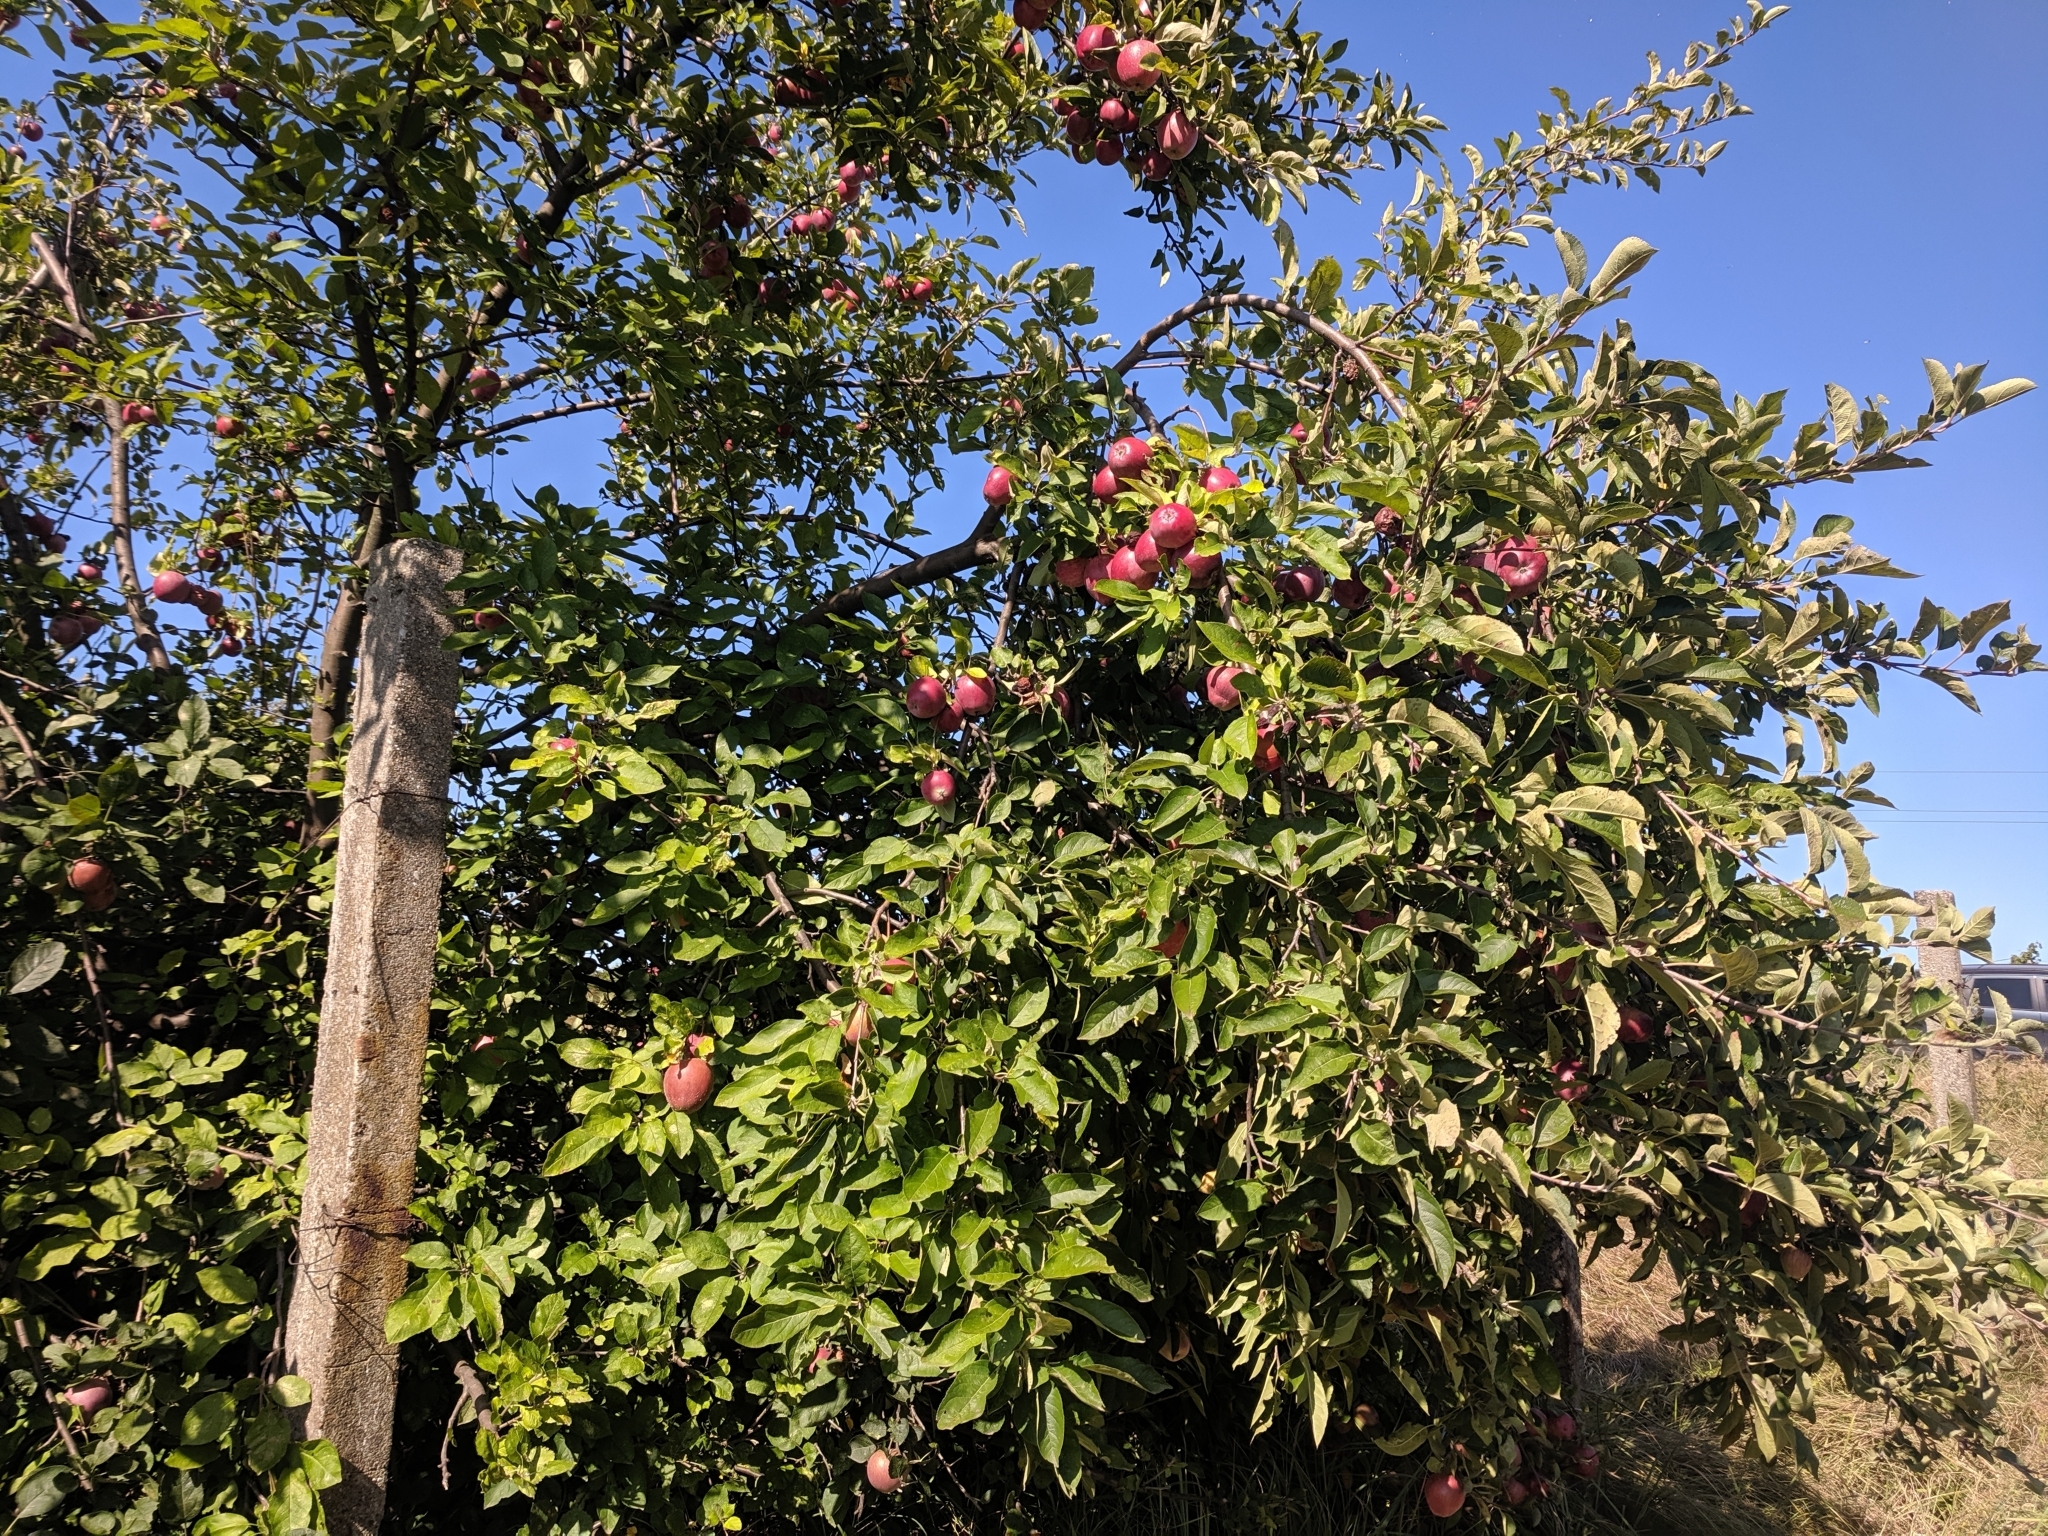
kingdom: Plantae
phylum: Tracheophyta
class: Magnoliopsida
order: Rosales
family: Rosaceae
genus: Malus
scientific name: Malus domestica
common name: Apple
